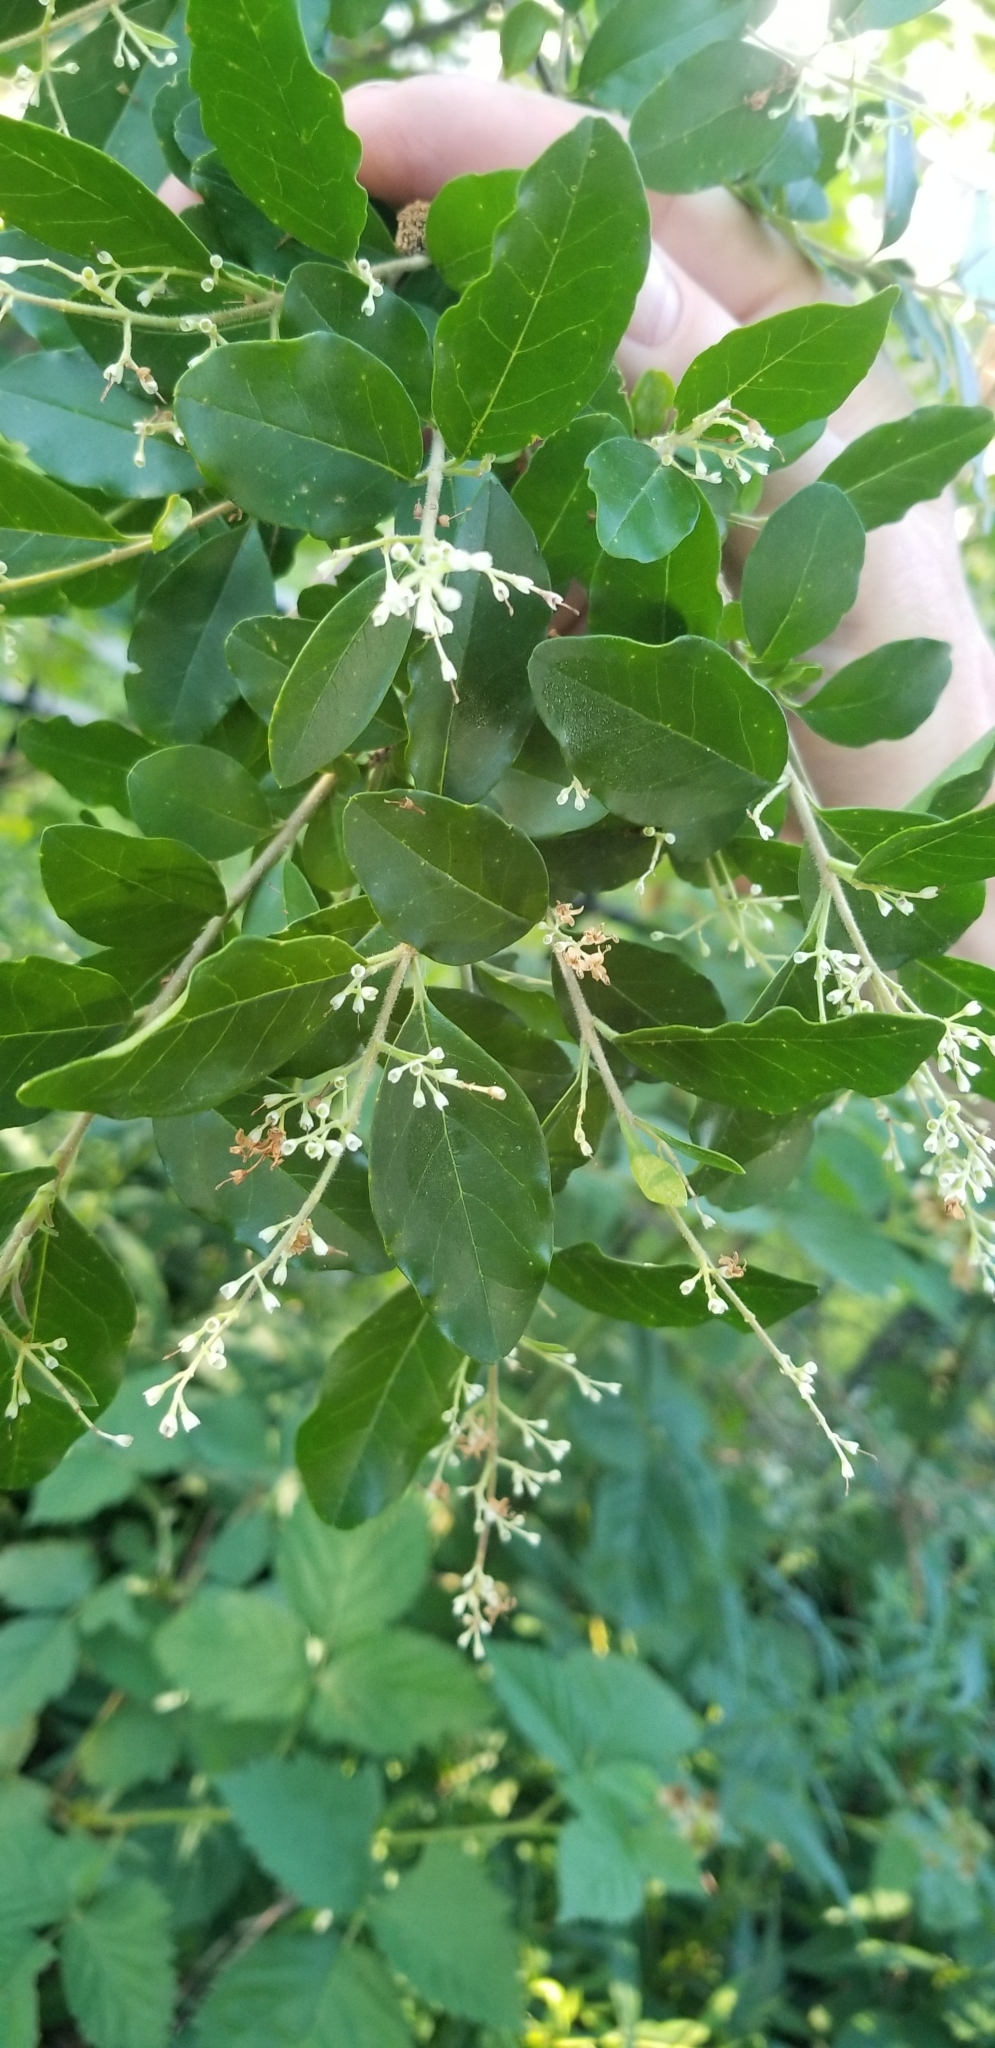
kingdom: Plantae
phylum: Tracheophyta
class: Magnoliopsida
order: Lamiales
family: Oleaceae
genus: Ligustrum
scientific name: Ligustrum sinense
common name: Chinese privet
